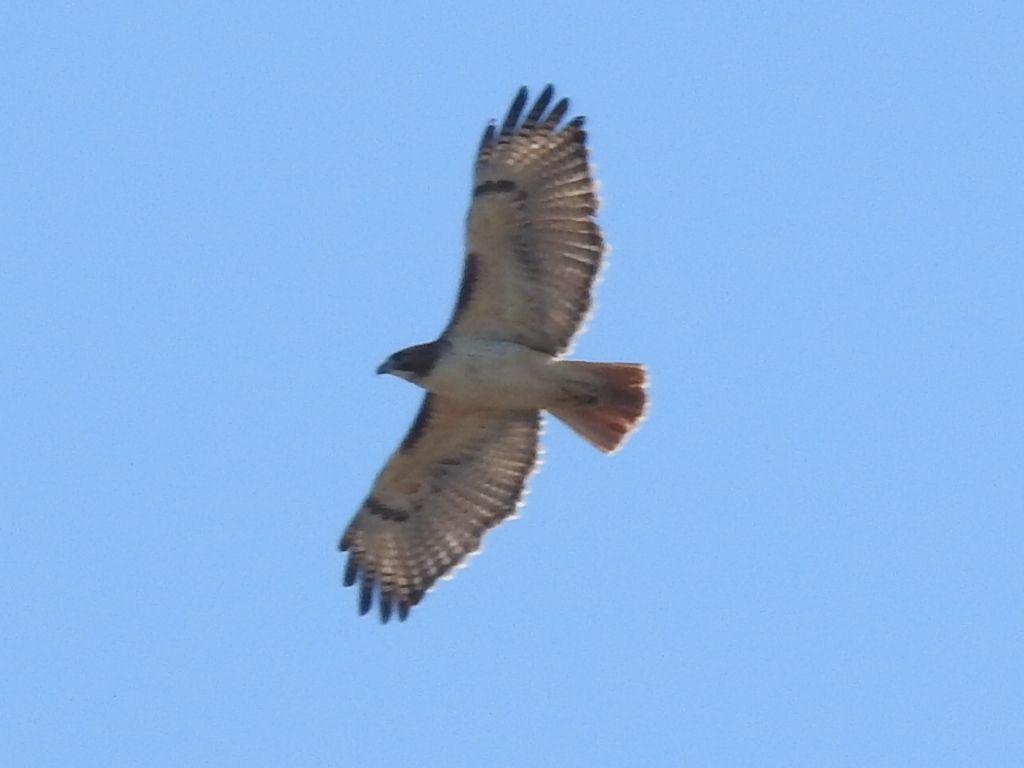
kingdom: Animalia
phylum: Chordata
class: Aves
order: Accipitriformes
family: Accipitridae
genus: Buteo
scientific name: Buteo jamaicensis
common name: Red-tailed hawk
